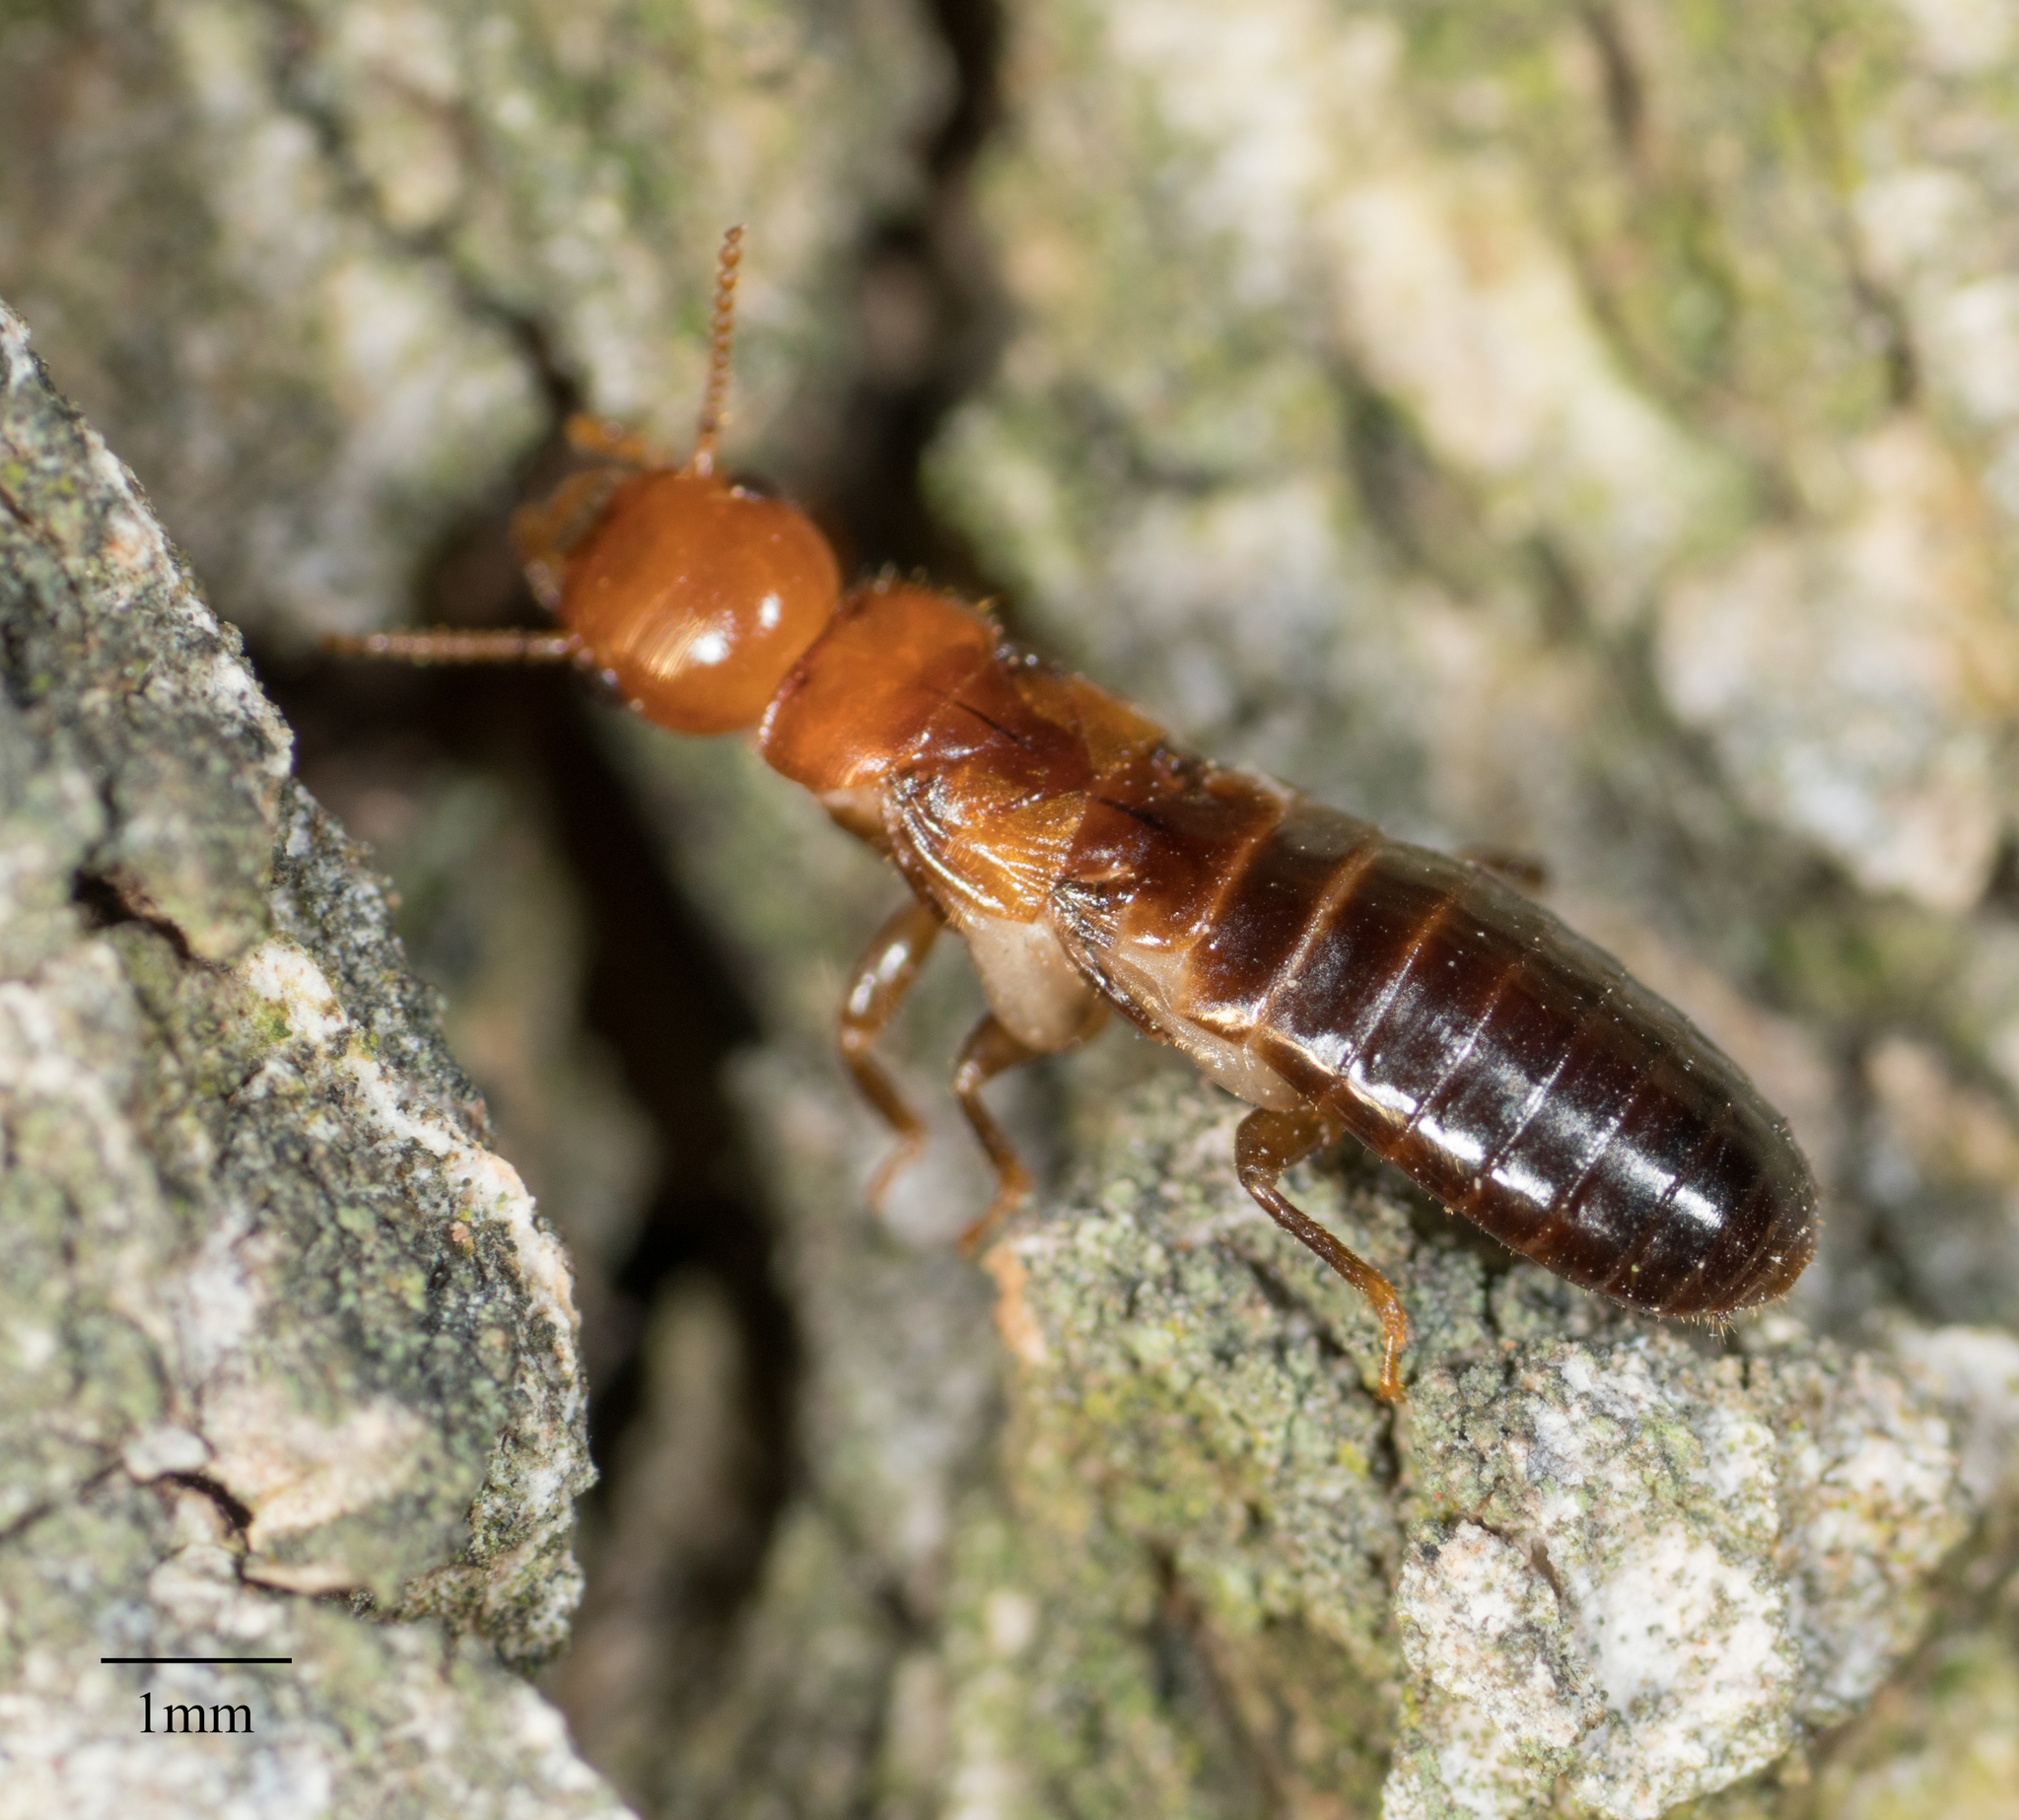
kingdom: Animalia
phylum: Arthropoda
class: Insecta
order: Blattodea
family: Kalotermitidae
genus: Incisitermes
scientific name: Incisitermes minor
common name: Termite
